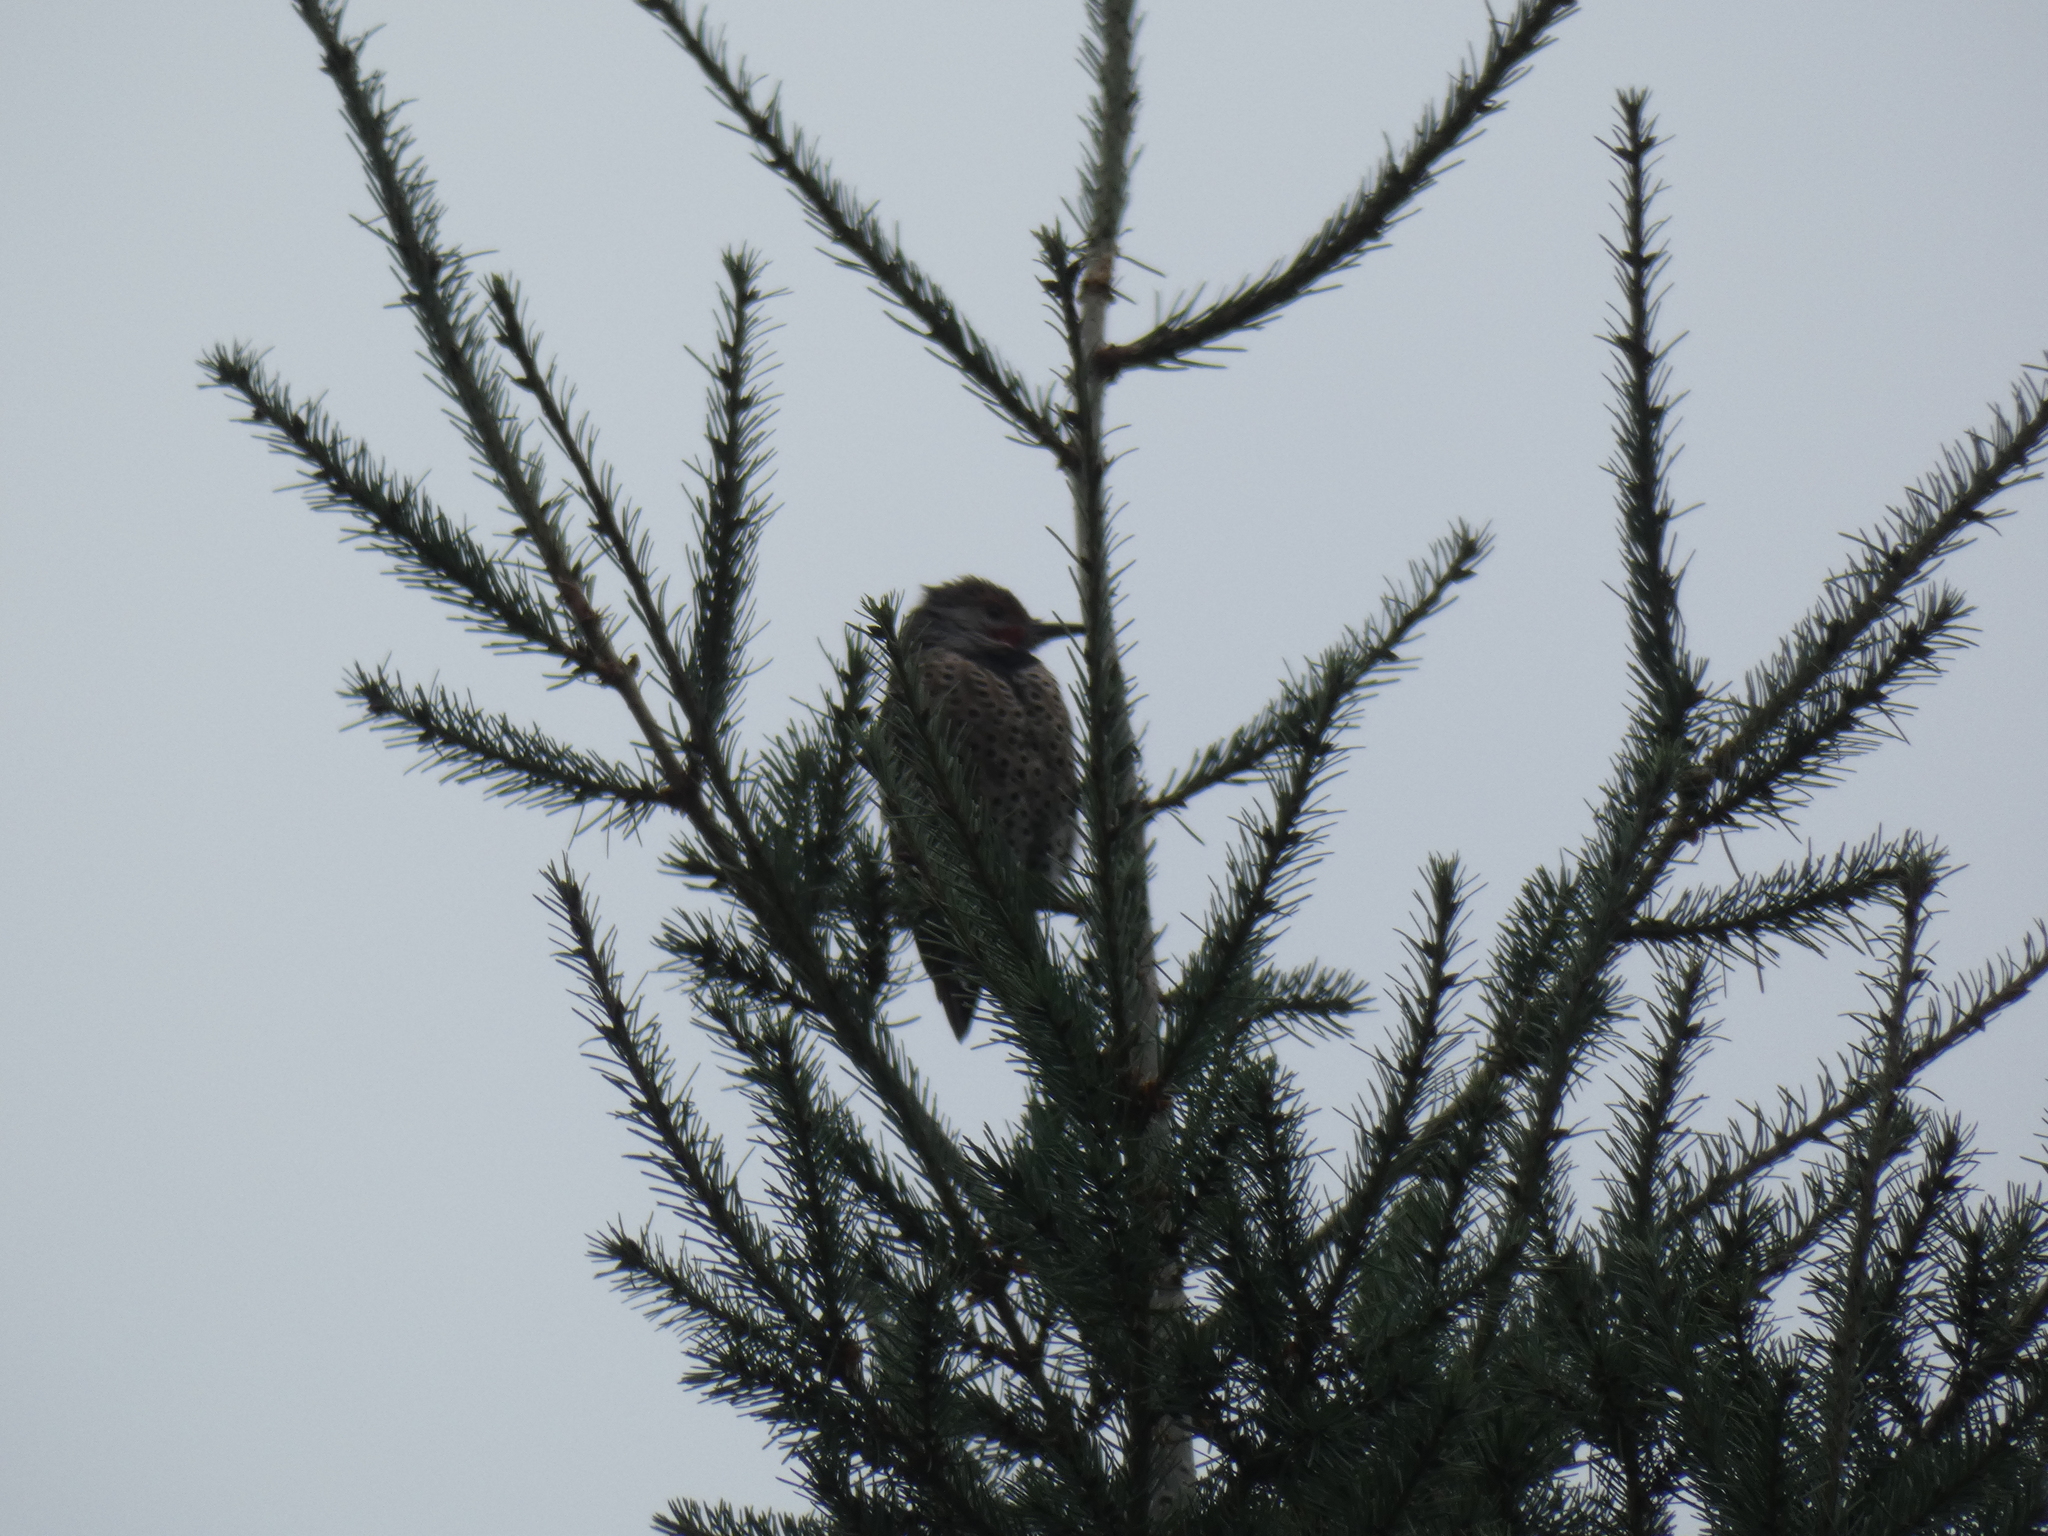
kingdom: Animalia
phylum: Chordata
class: Aves
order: Piciformes
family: Picidae
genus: Colaptes
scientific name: Colaptes auratus
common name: Northern flicker
